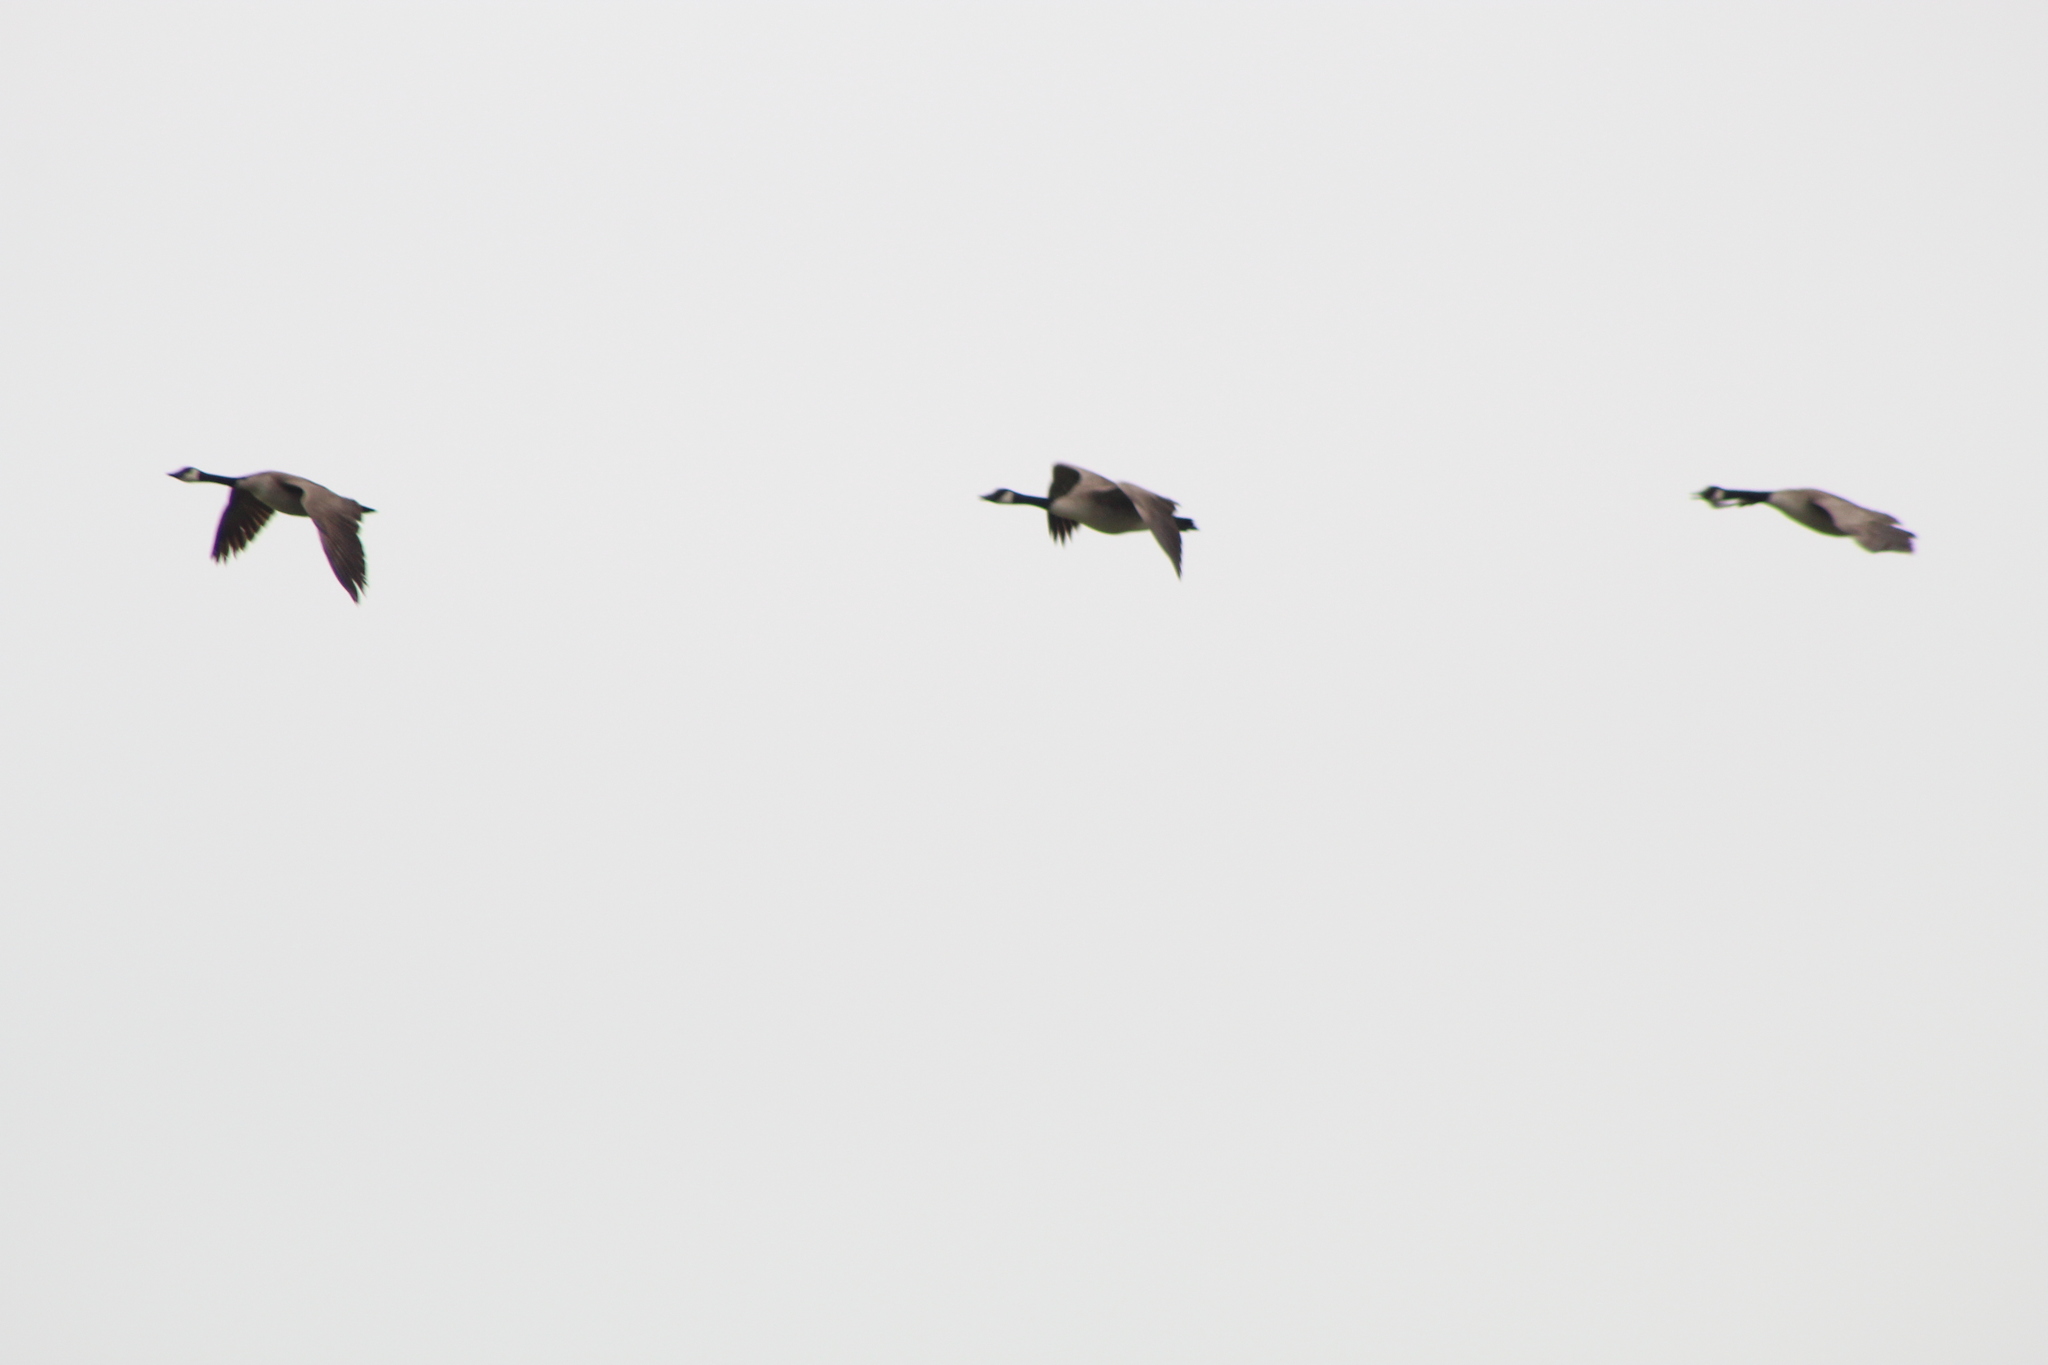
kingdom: Animalia
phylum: Chordata
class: Aves
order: Anseriformes
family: Anatidae
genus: Branta
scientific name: Branta canadensis
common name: Canada goose
